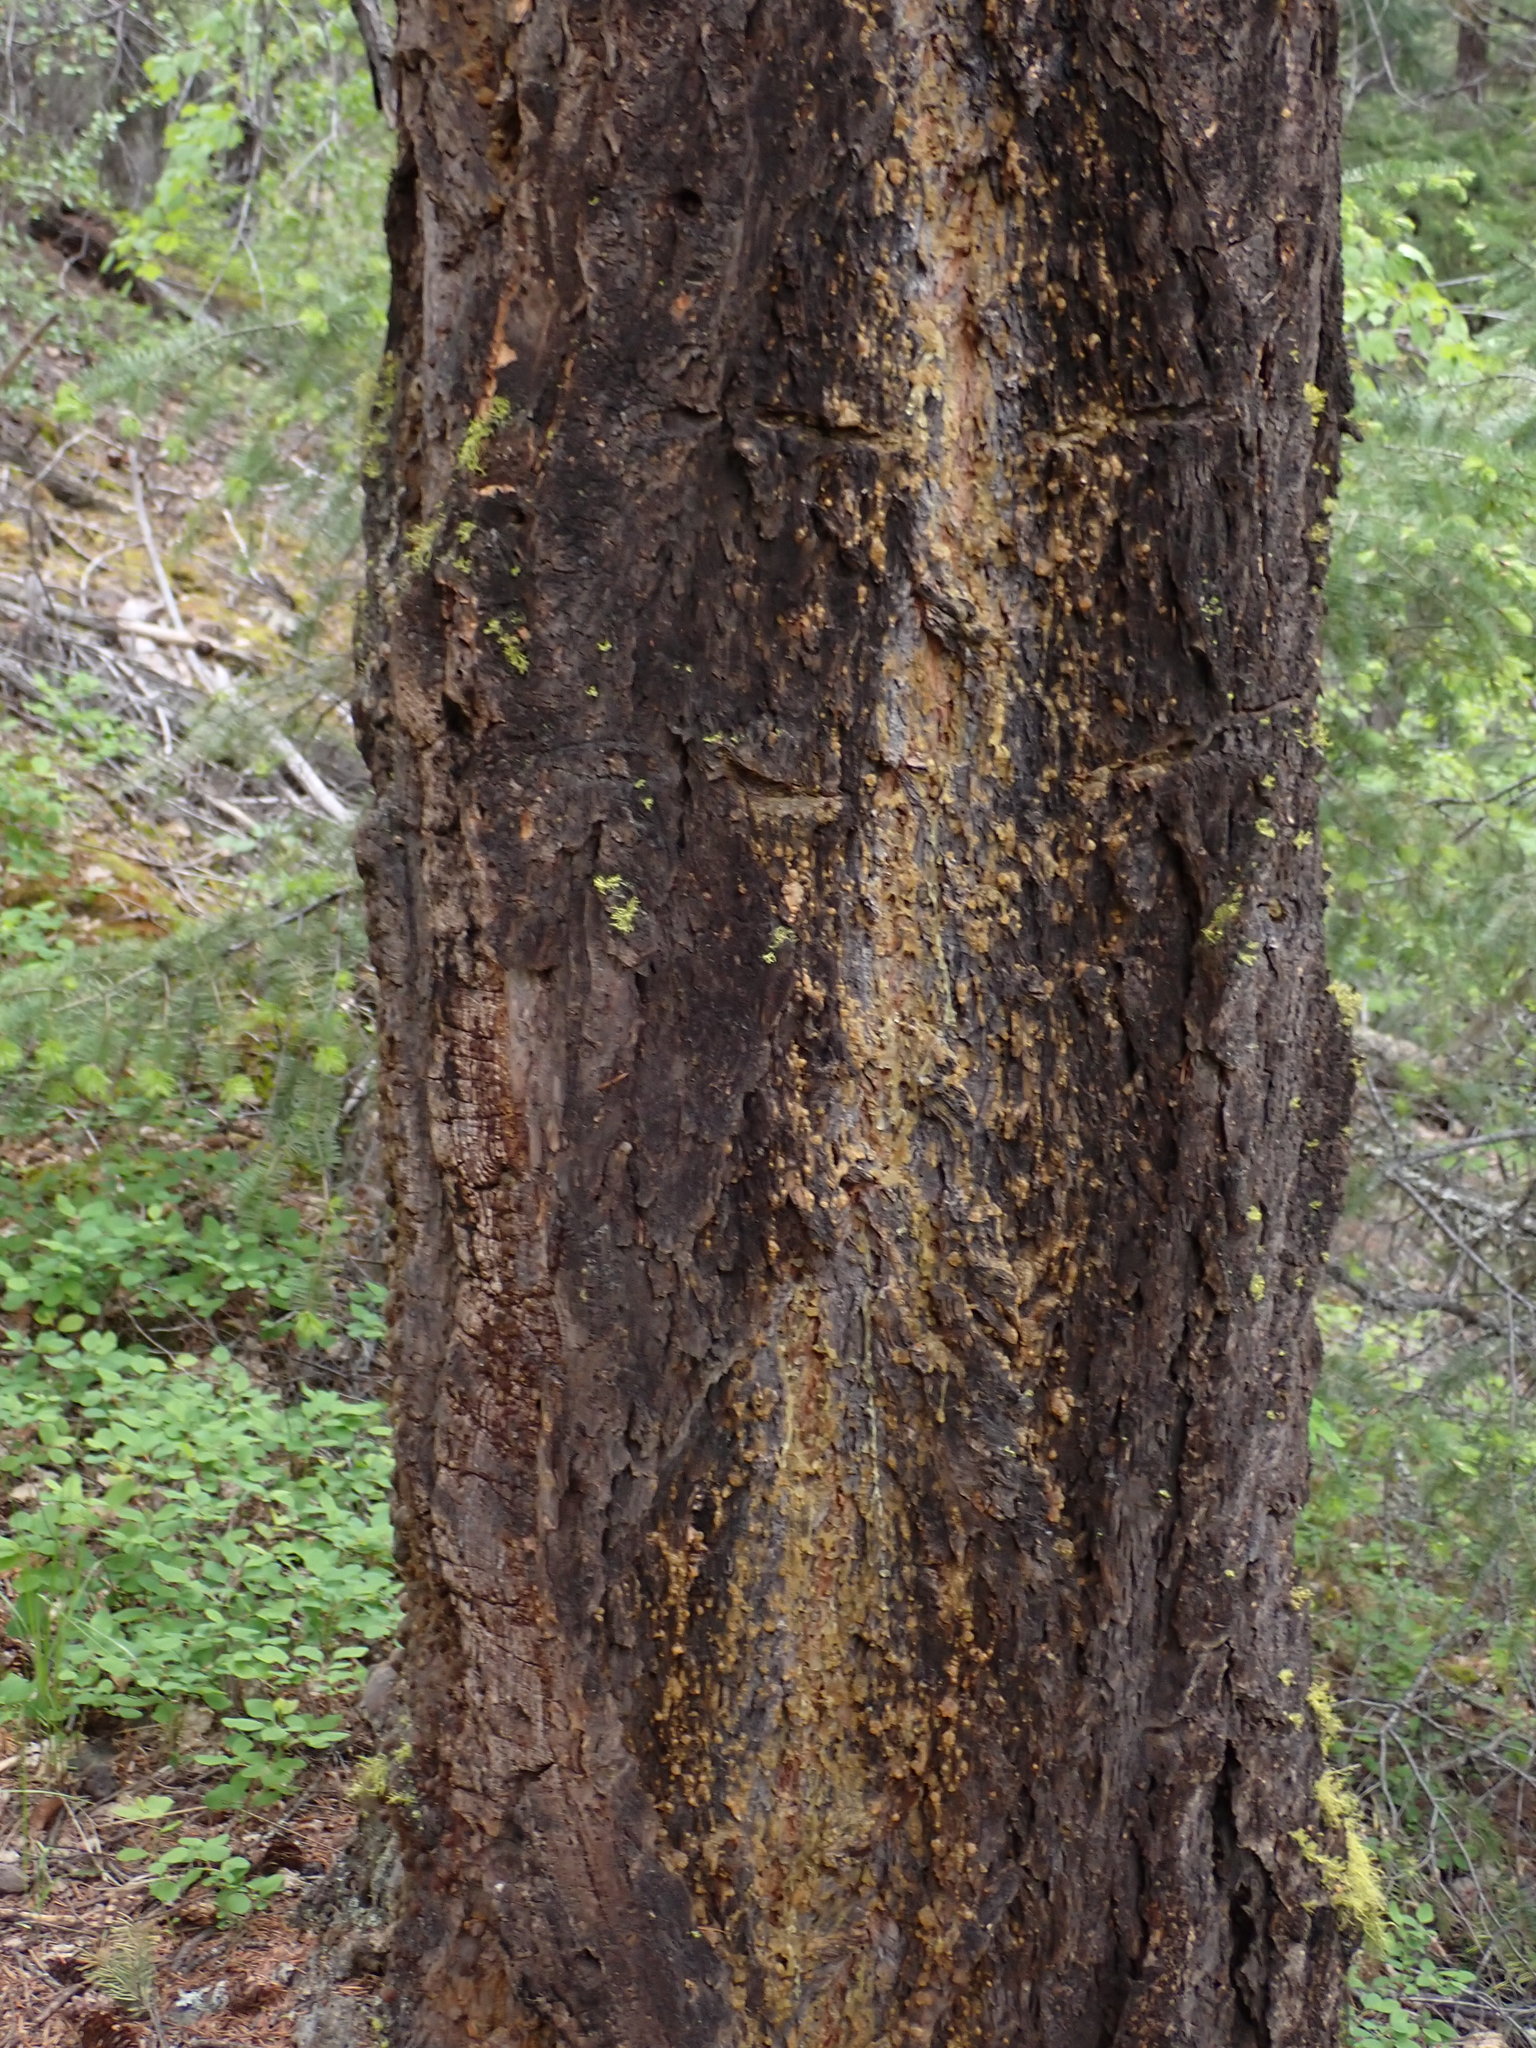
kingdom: Plantae
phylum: Tracheophyta
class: Pinopsida
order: Pinales
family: Pinaceae
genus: Pseudotsuga
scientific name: Pseudotsuga menziesii
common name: Douglas fir
